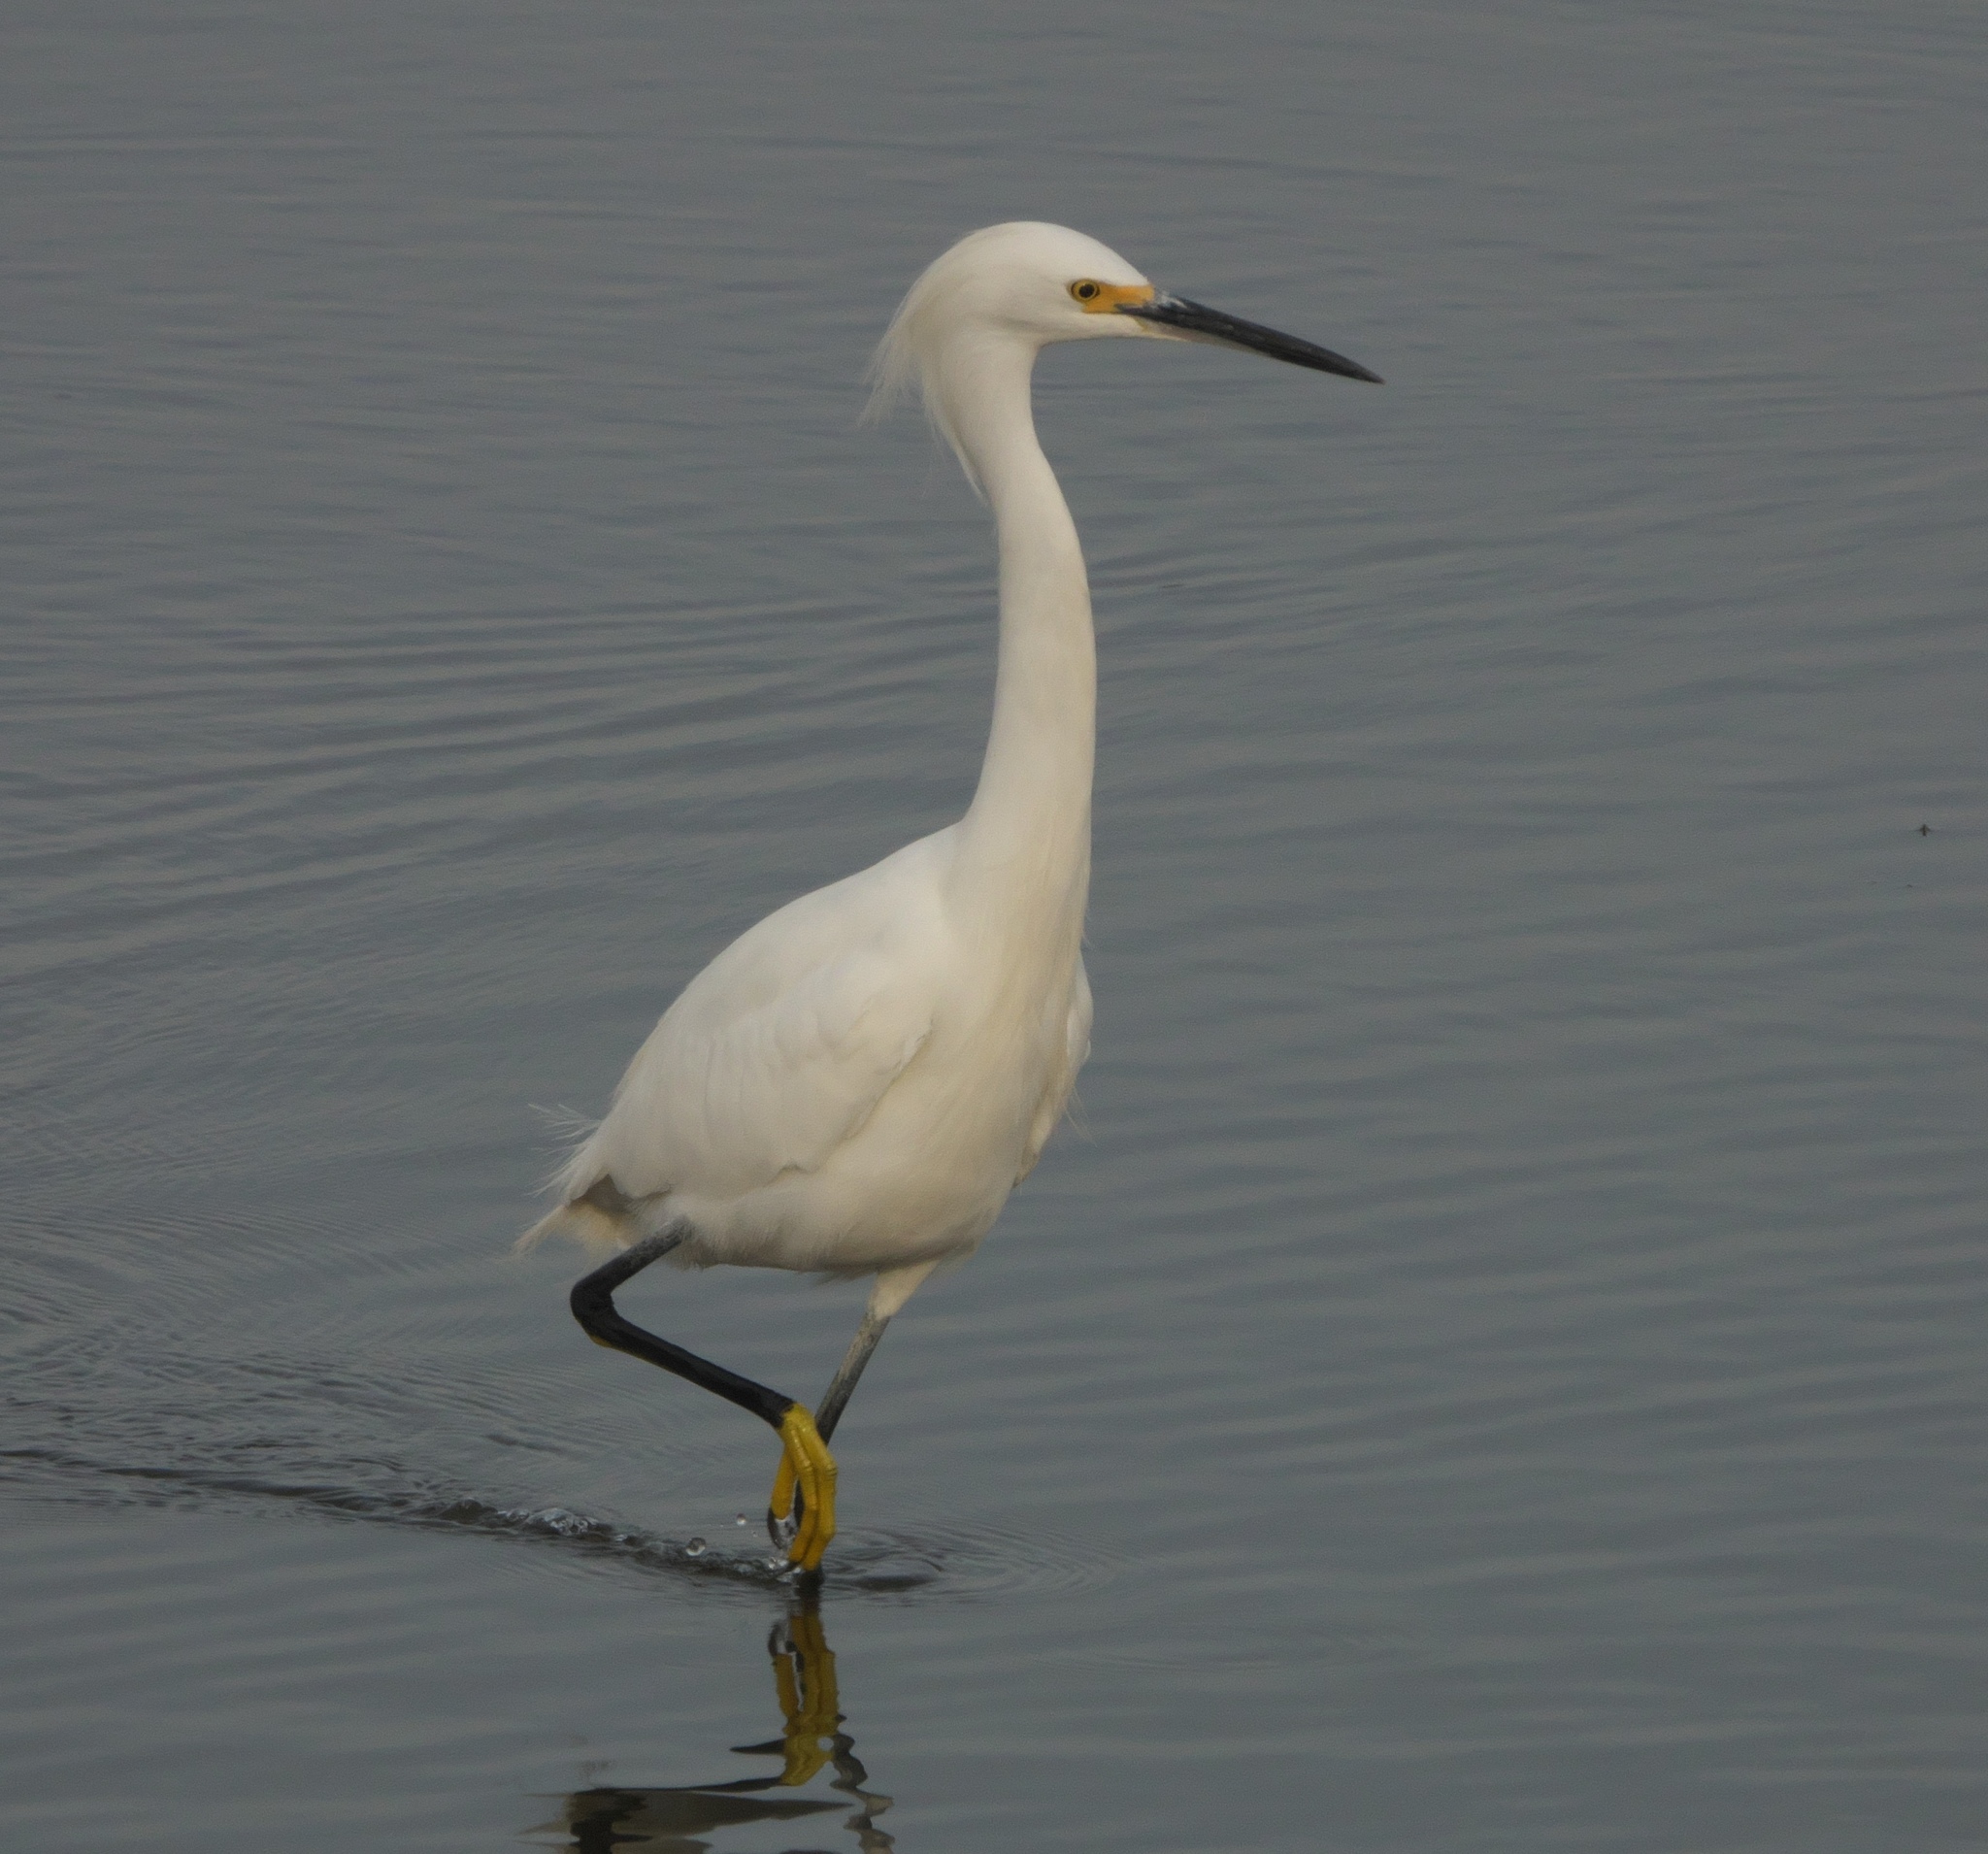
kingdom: Animalia
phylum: Chordata
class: Aves
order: Pelecaniformes
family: Ardeidae
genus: Egretta
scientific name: Egretta thula
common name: Snowy egret
